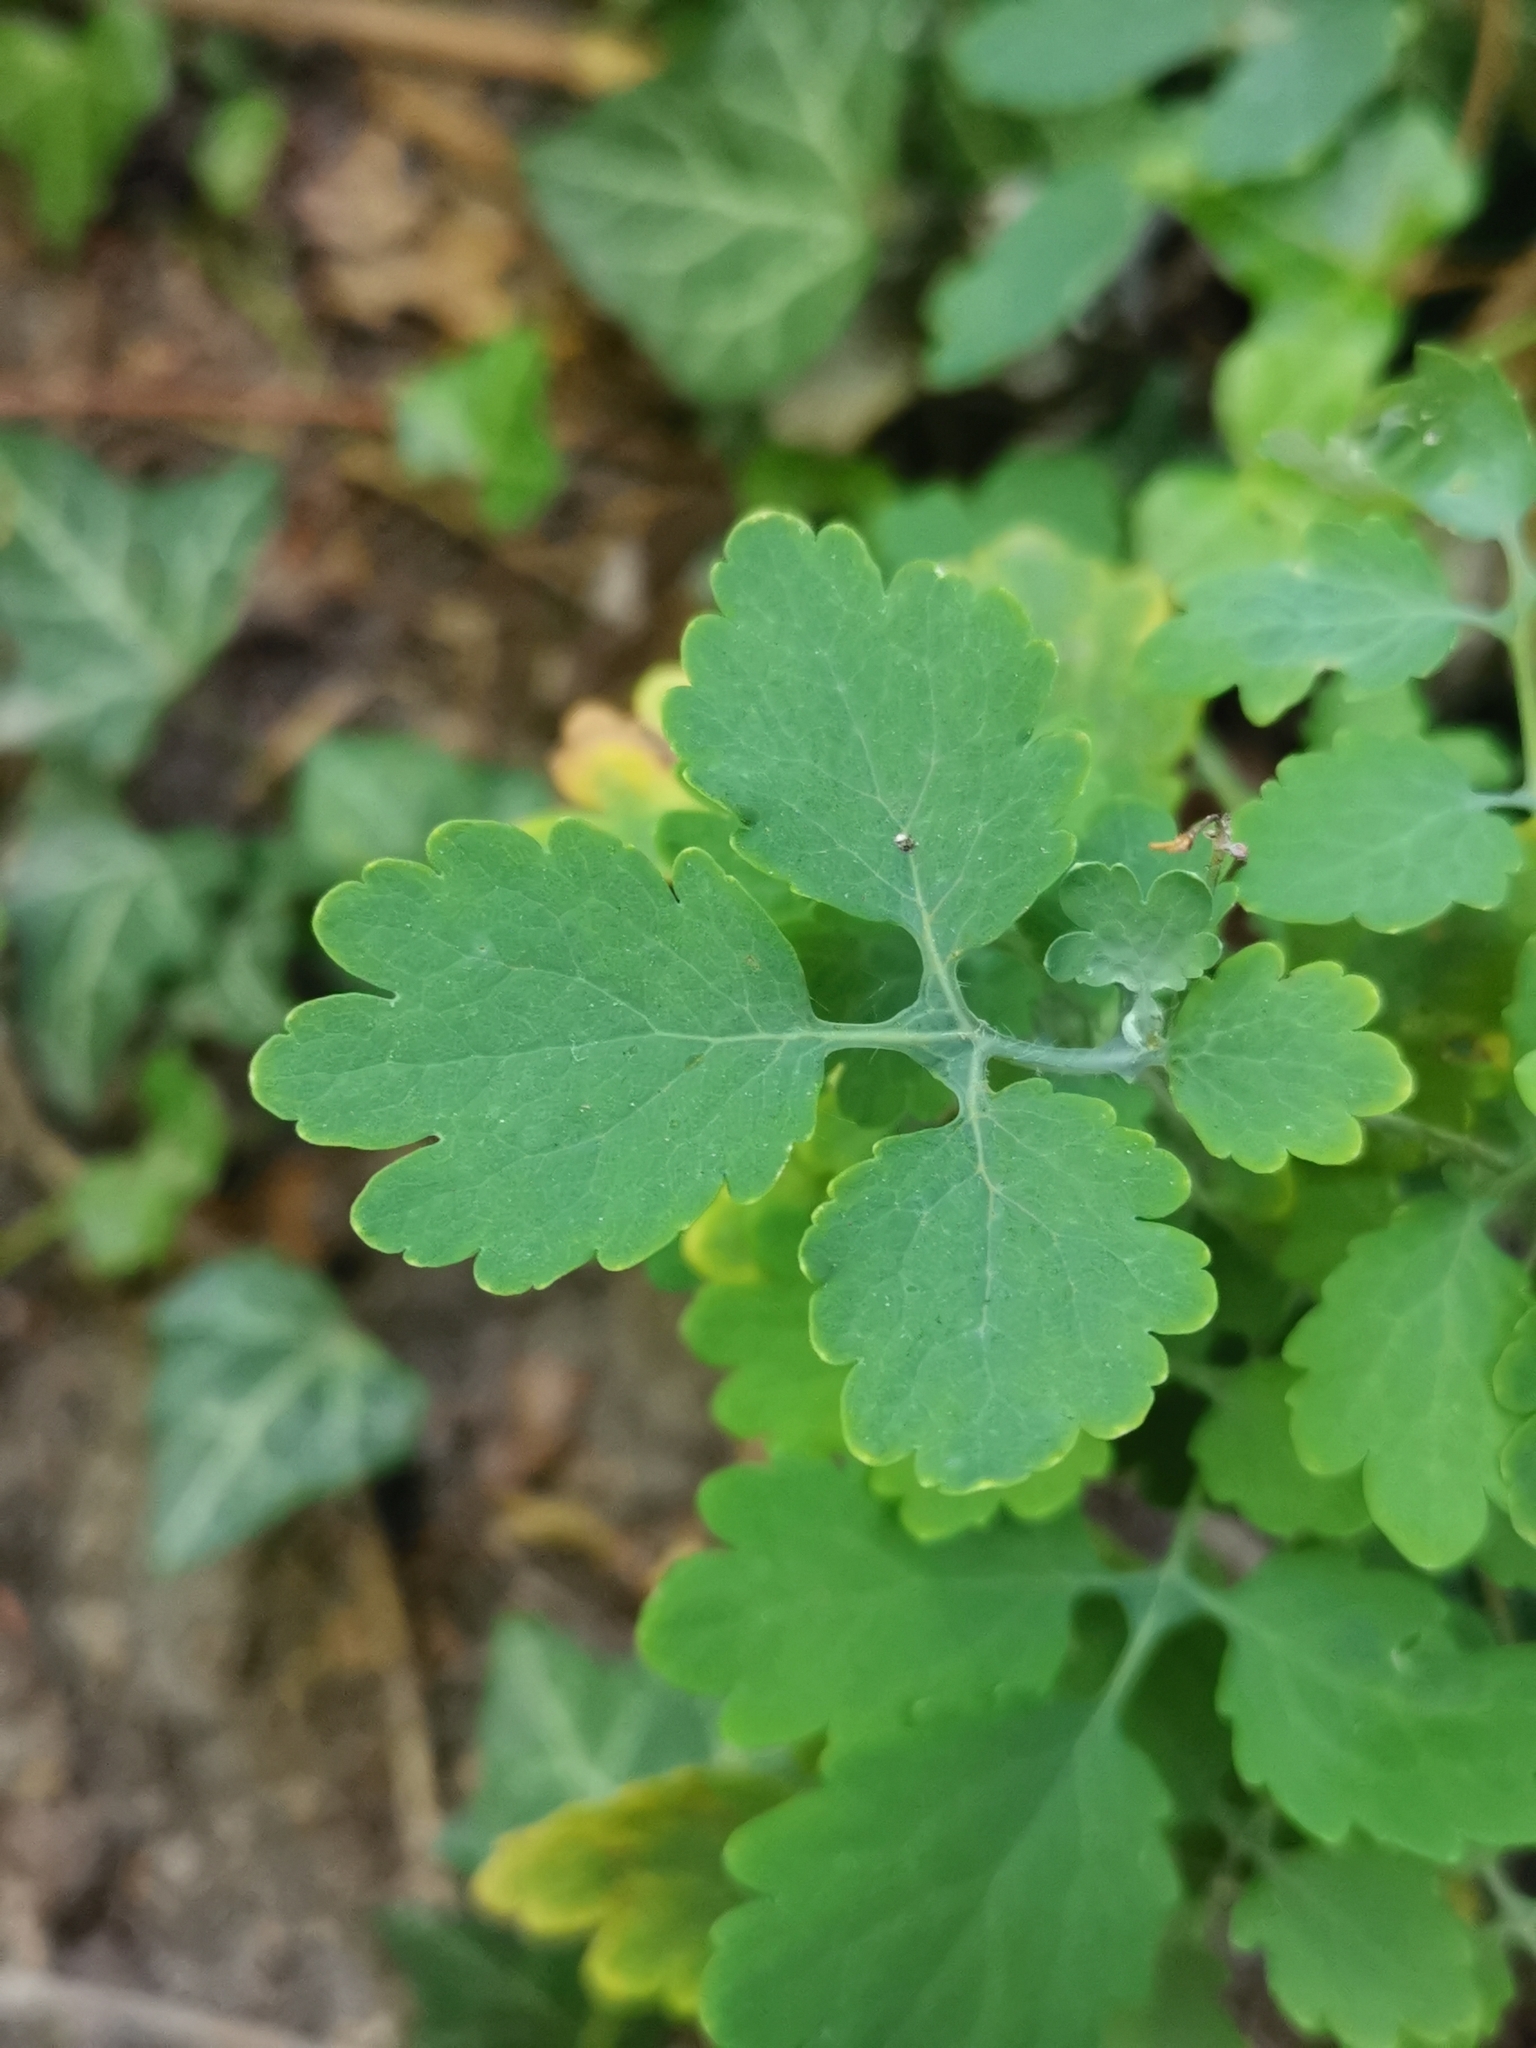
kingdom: Plantae
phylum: Tracheophyta
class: Magnoliopsida
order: Ranunculales
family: Papaveraceae
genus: Chelidonium
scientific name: Chelidonium majus
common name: Greater celandine
